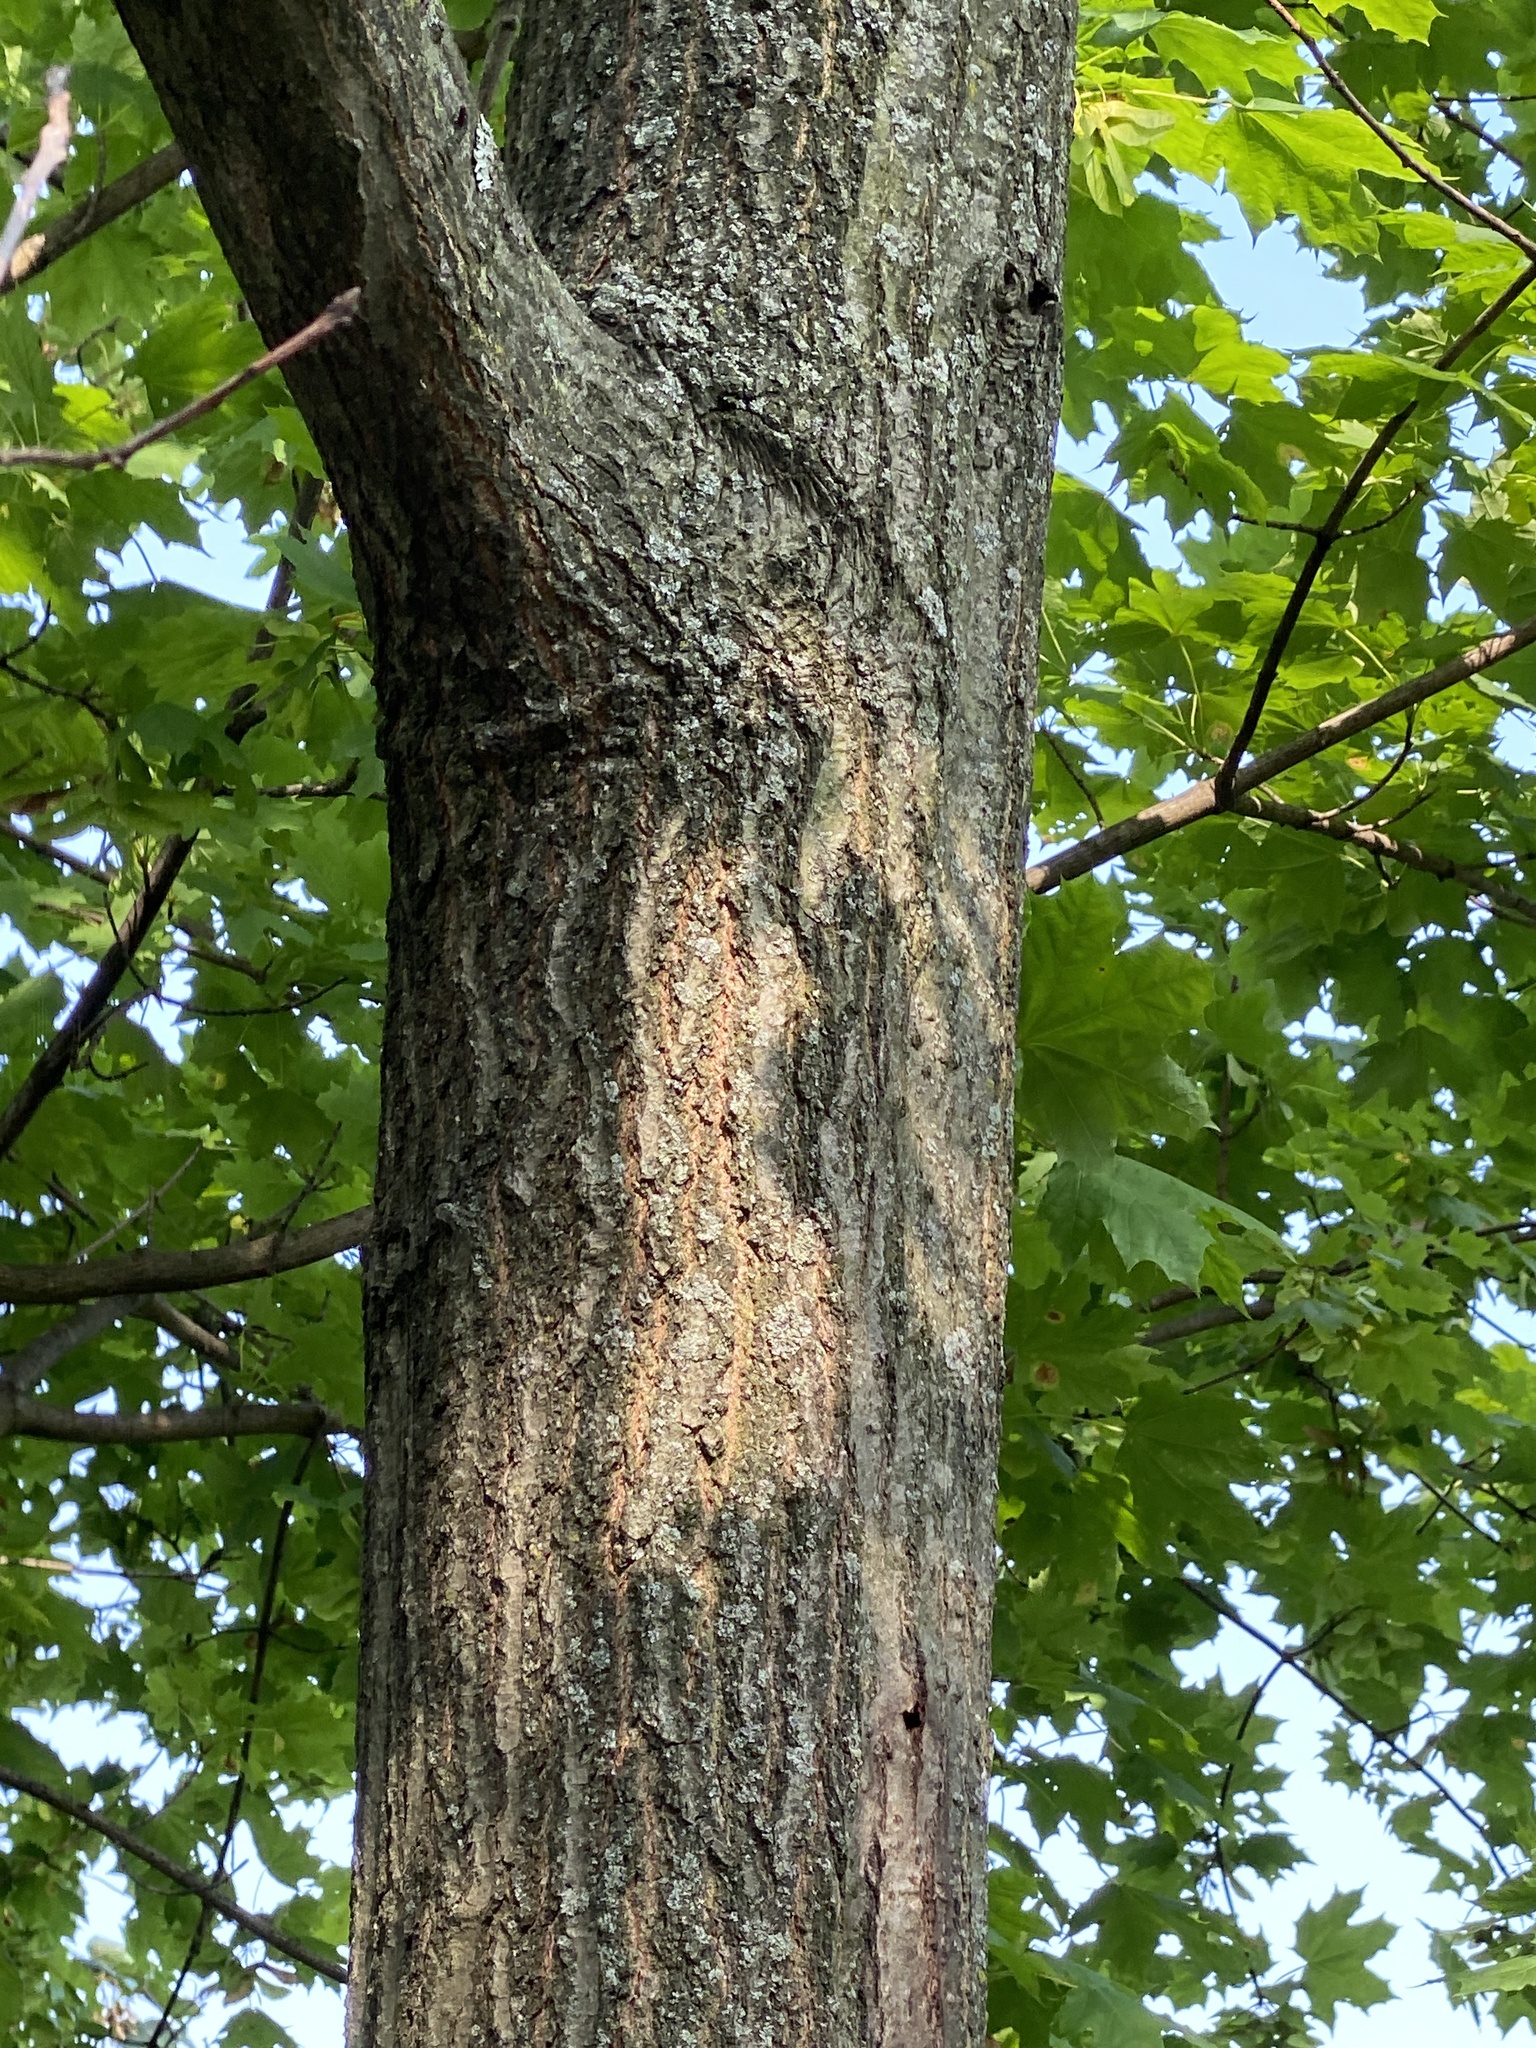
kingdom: Plantae
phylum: Tracheophyta
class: Magnoliopsida
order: Fagales
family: Fagaceae
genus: Quercus
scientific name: Quercus rubra
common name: Red oak
